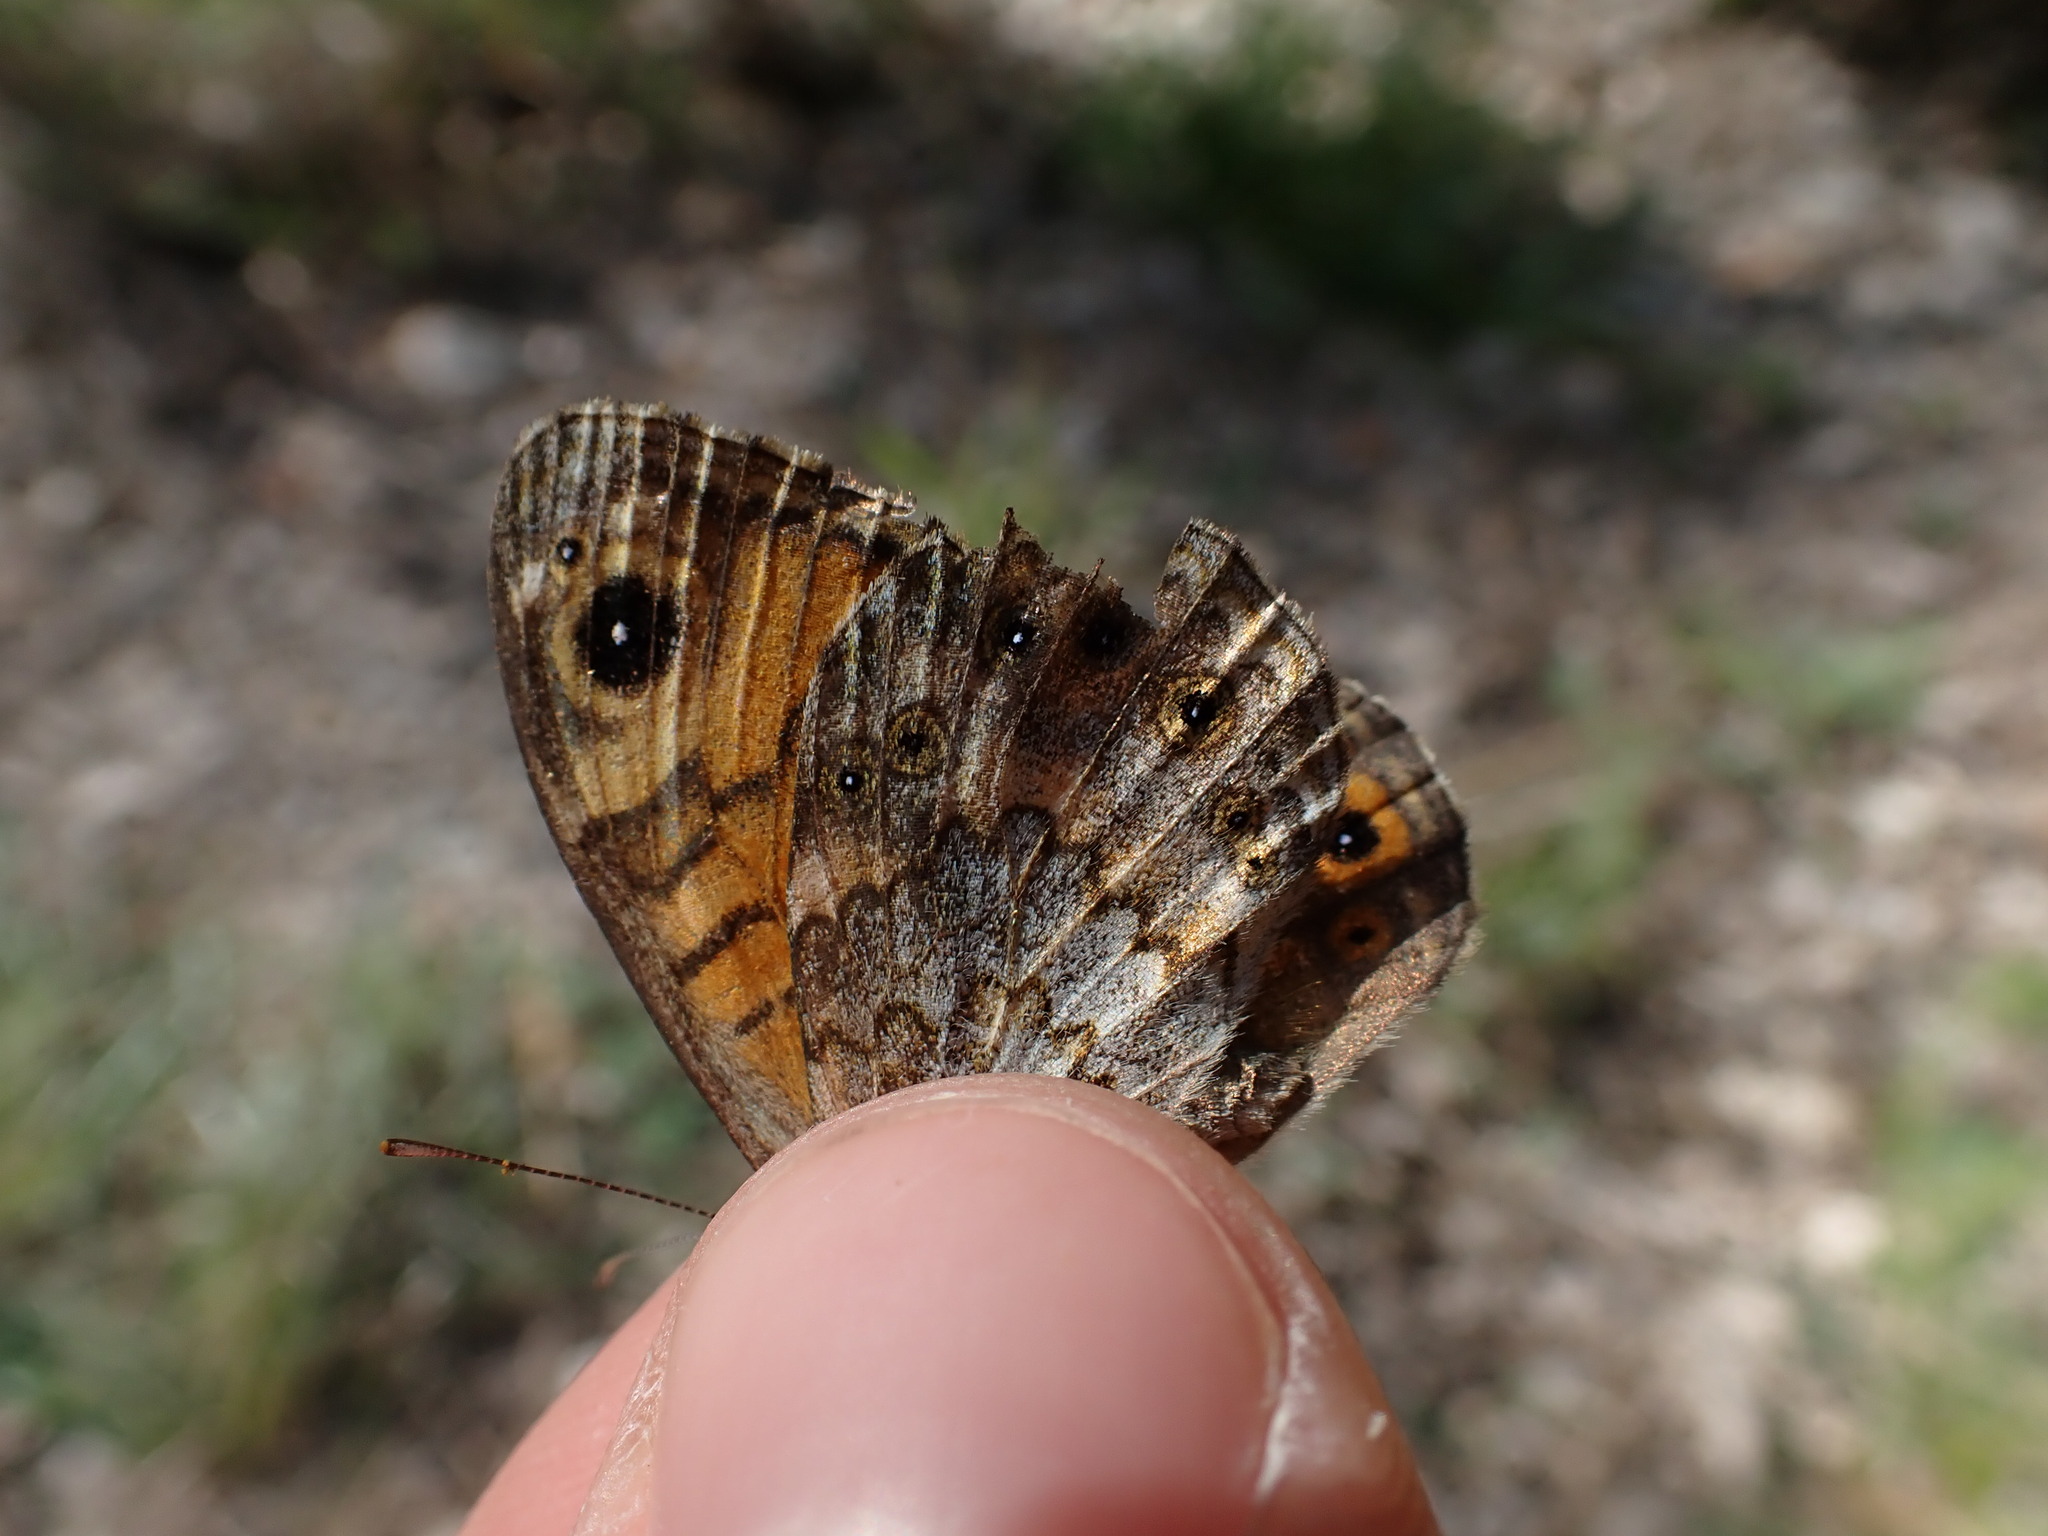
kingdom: Animalia
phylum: Arthropoda
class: Insecta
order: Lepidoptera
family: Nymphalidae
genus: Pararge
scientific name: Pararge Lasiommata megera
